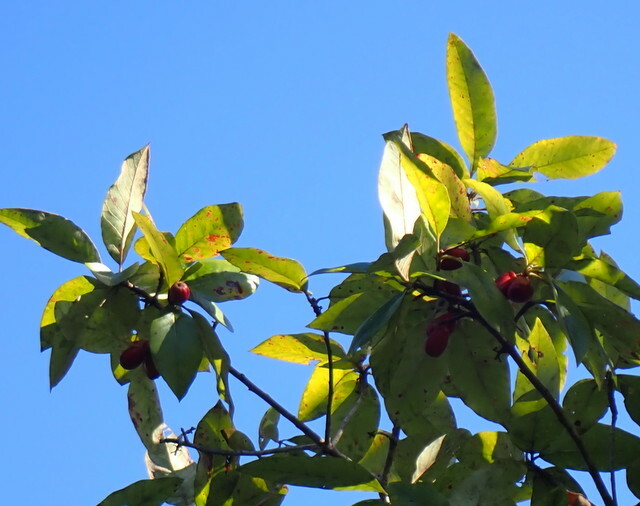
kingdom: Plantae
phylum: Tracheophyta
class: Magnoliopsida
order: Cornales
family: Nyssaceae
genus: Nyssa
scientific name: Nyssa ogeche
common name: Ogeechee tupelo
